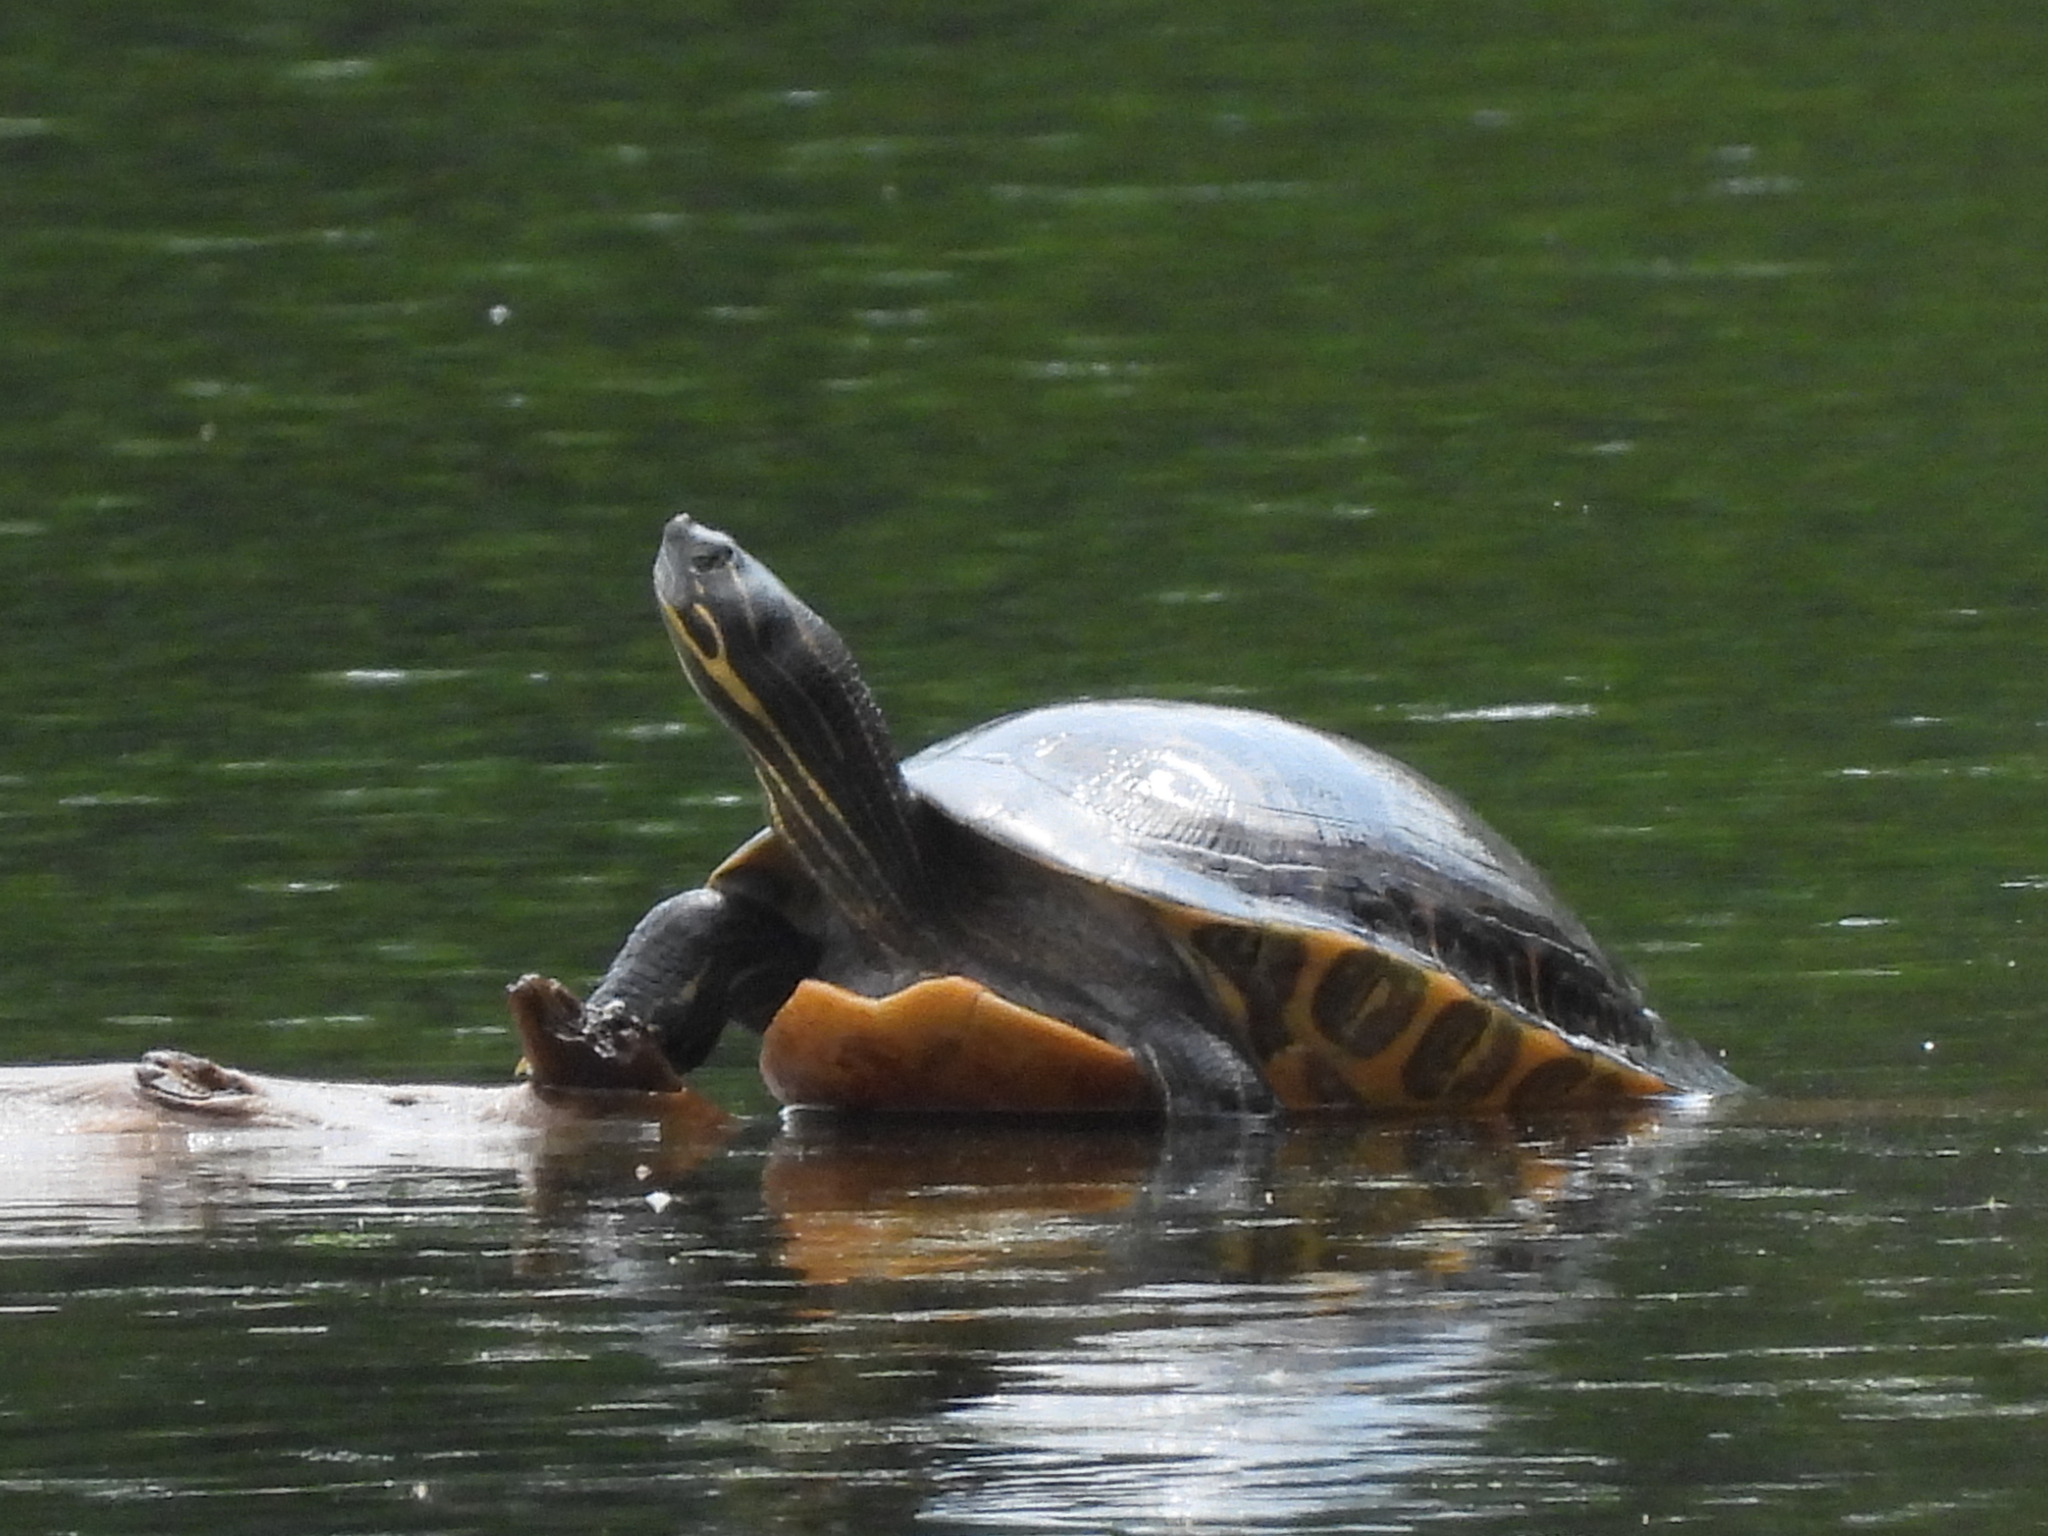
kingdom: Animalia
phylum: Chordata
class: Testudines
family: Emydidae
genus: Pseudemys
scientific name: Pseudemys concinna
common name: Eastern river cooter
